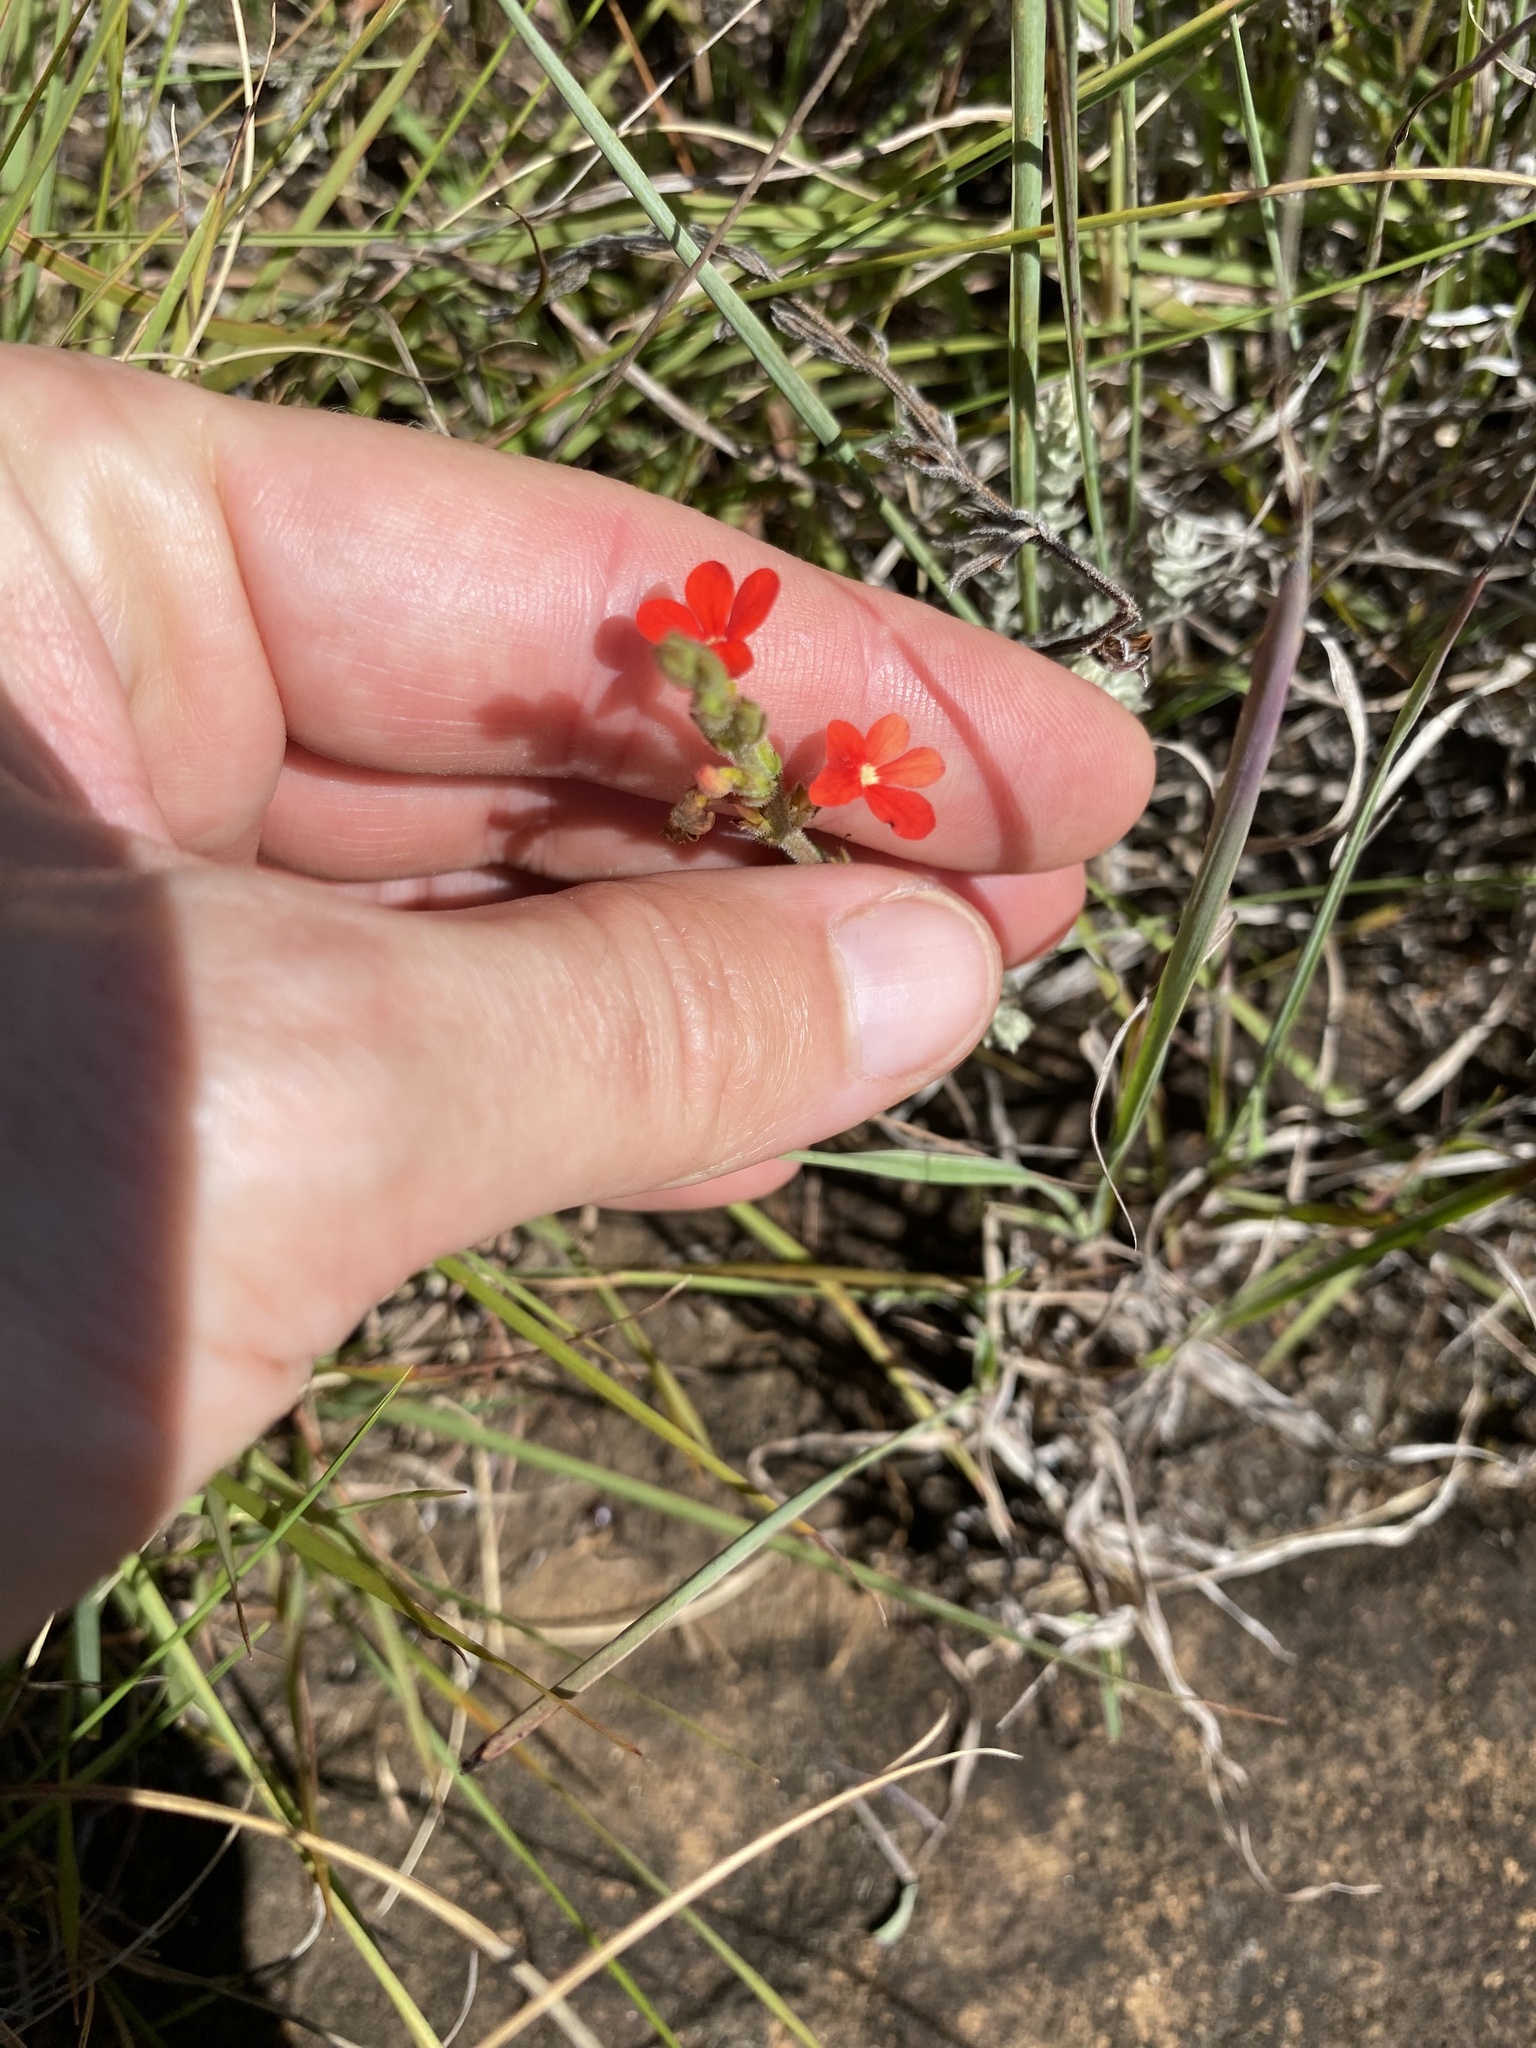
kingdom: Plantae
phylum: Tracheophyta
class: Magnoliopsida
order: Lamiales
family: Orobanchaceae
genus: Striga
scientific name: Striga elegans
